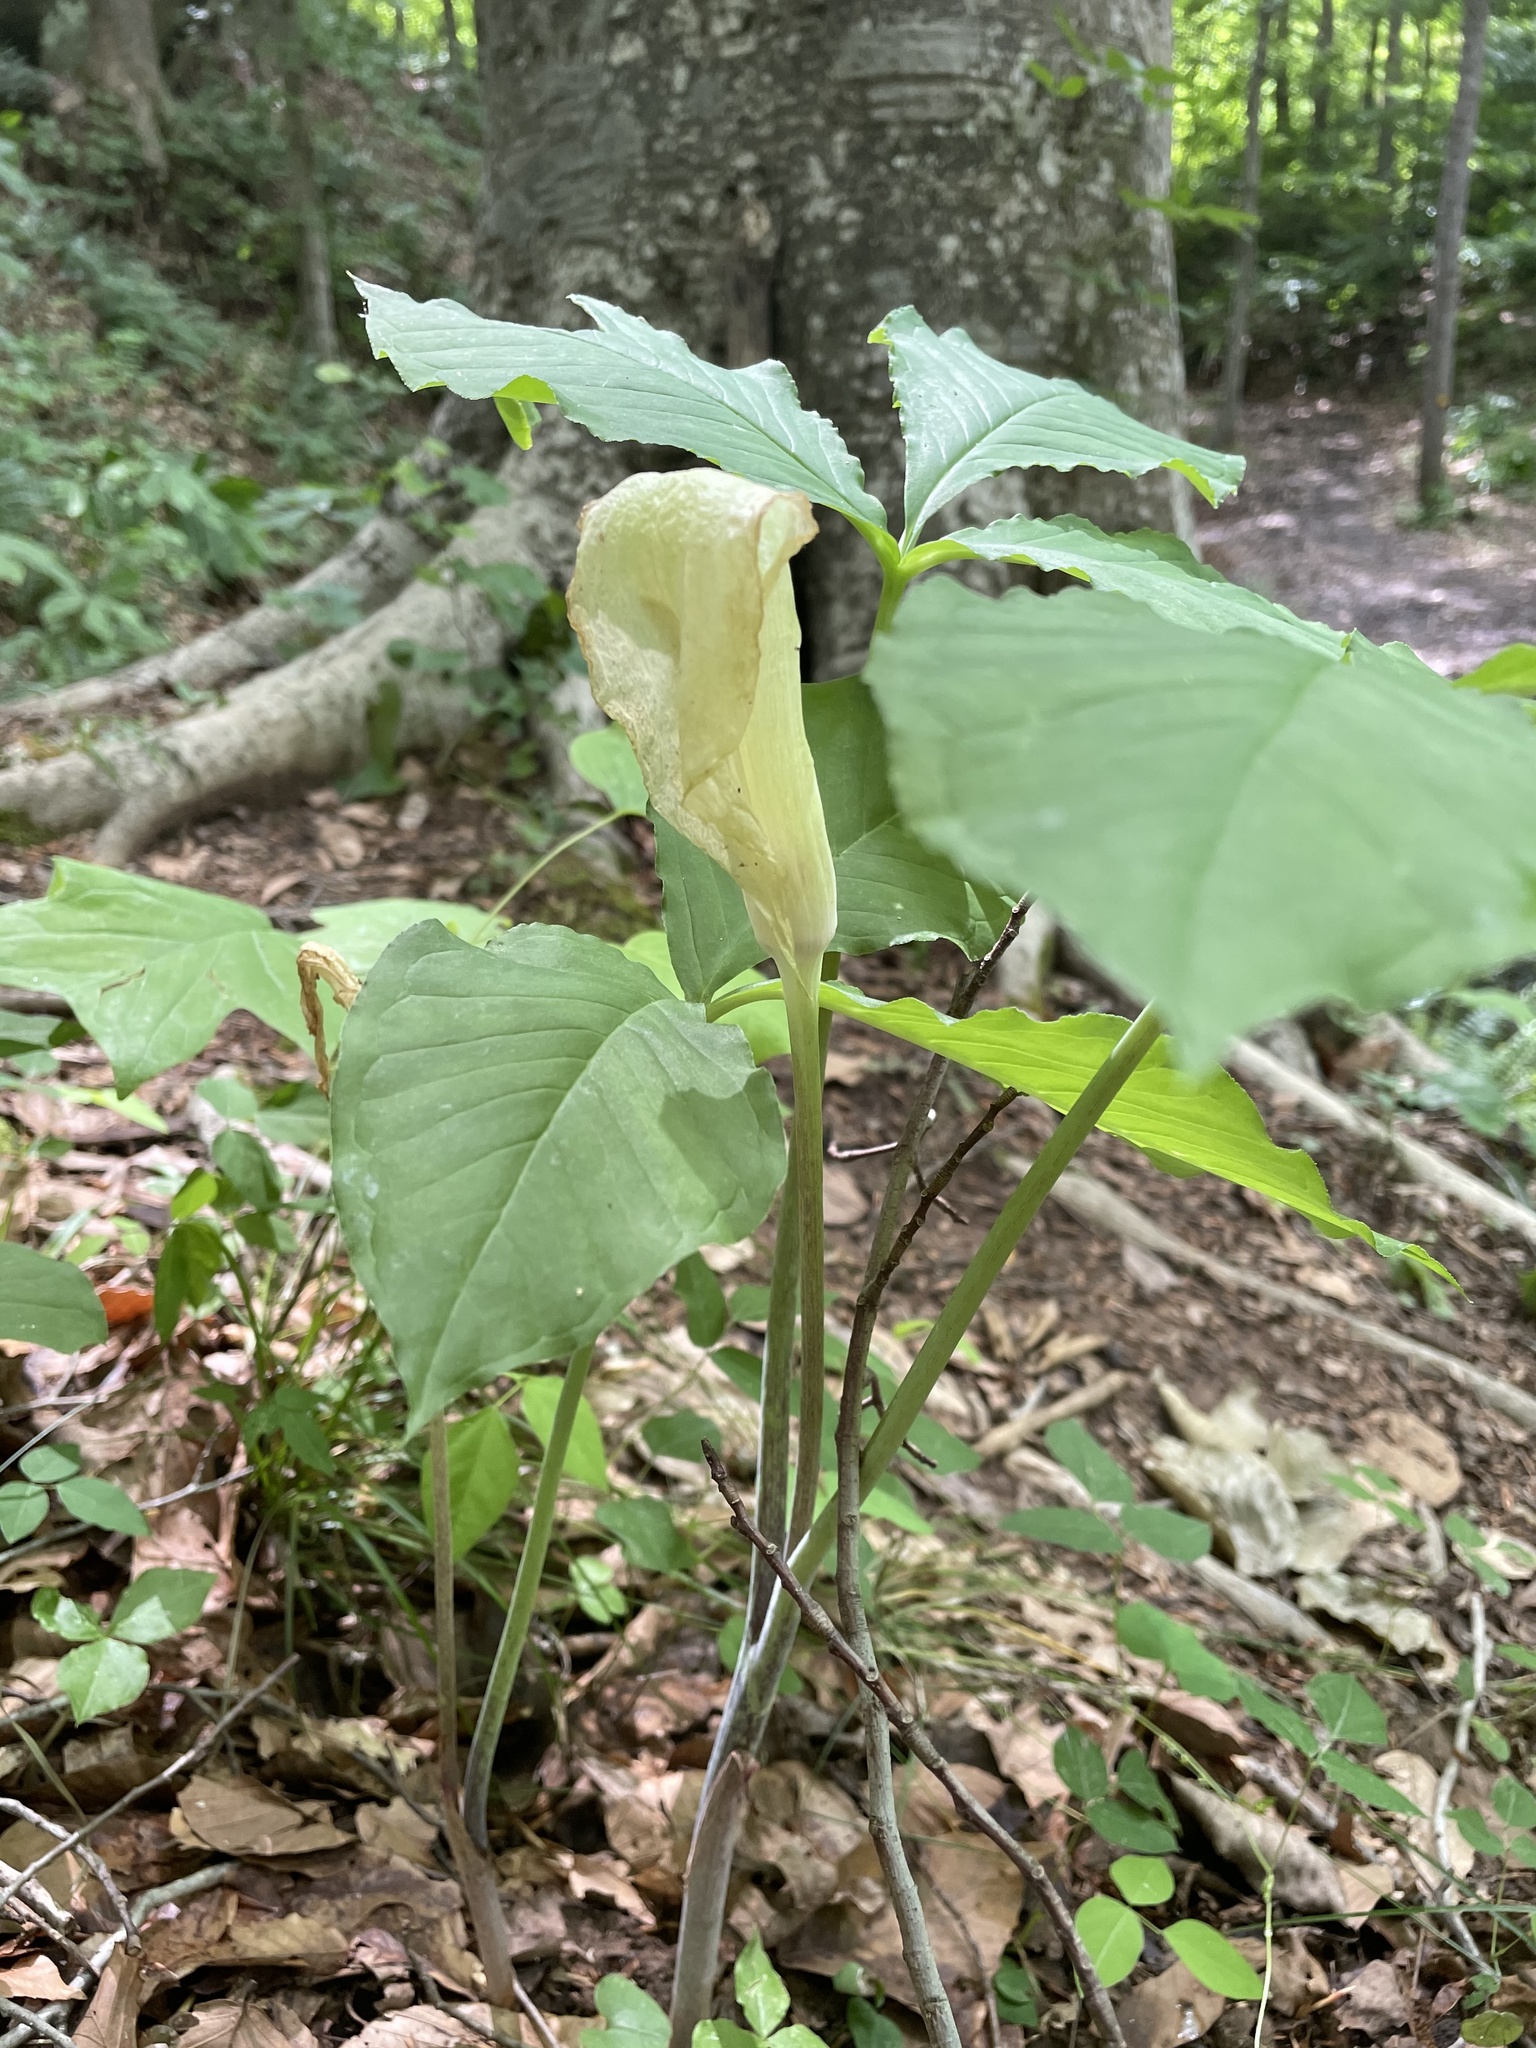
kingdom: Plantae
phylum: Tracheophyta
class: Liliopsida
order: Alismatales
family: Araceae
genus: Arisaema
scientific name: Arisaema triphyllum
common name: Jack-in-the-pulpit
